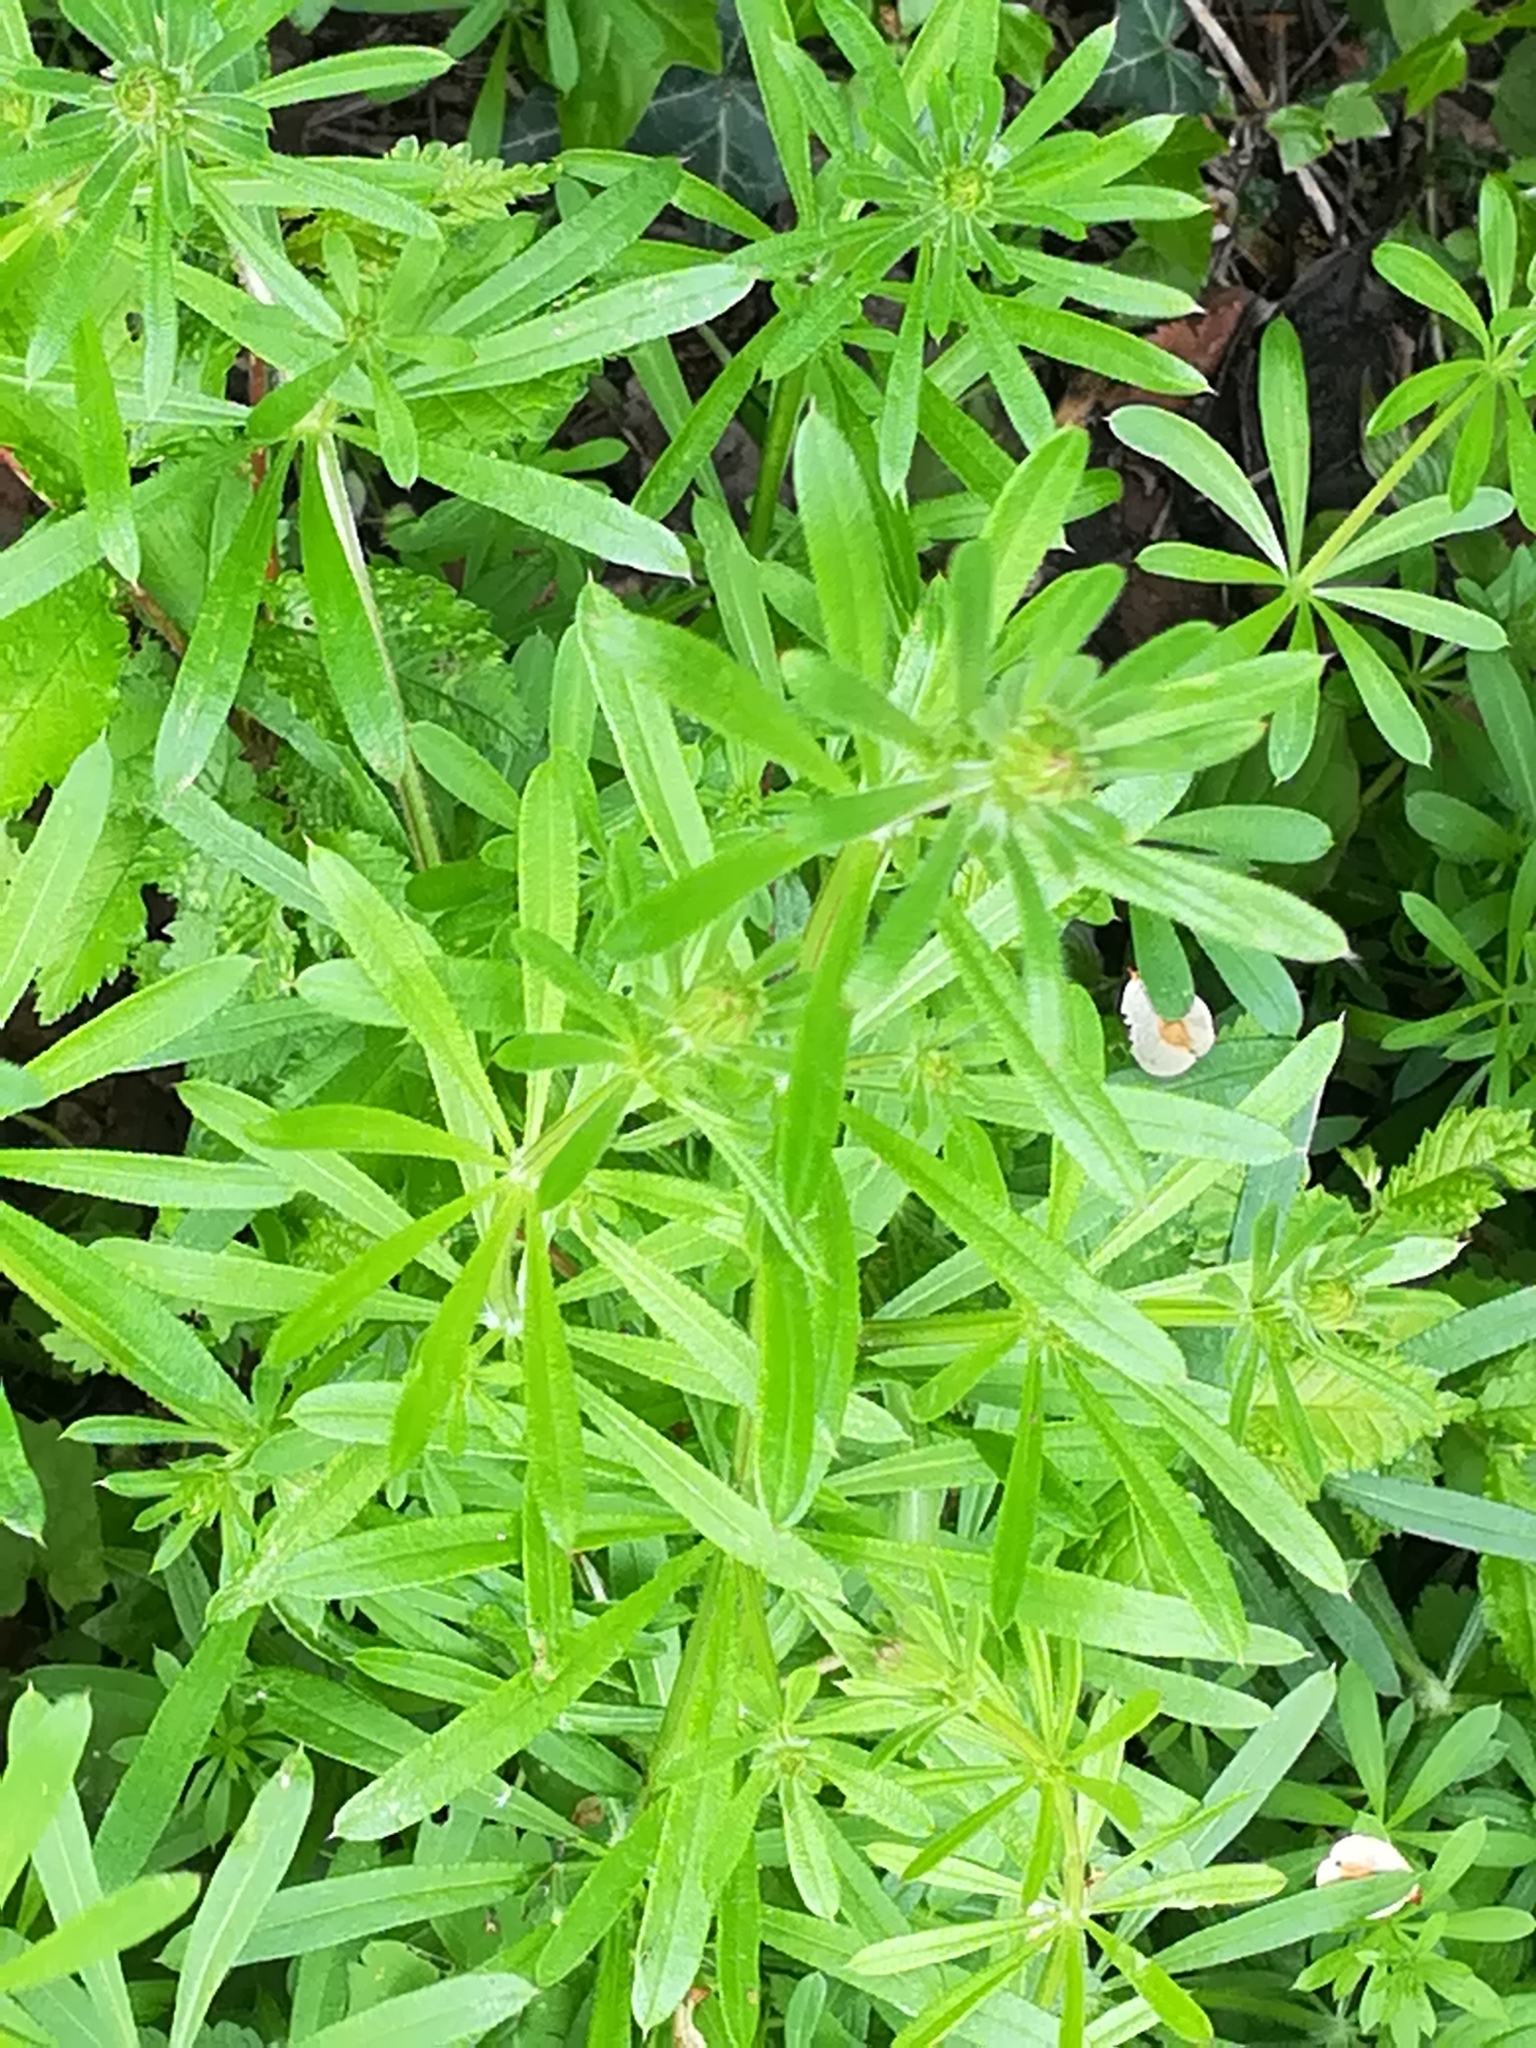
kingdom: Plantae
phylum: Tracheophyta
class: Magnoliopsida
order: Gentianales
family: Rubiaceae
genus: Galium
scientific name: Galium aparine
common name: Cleavers
